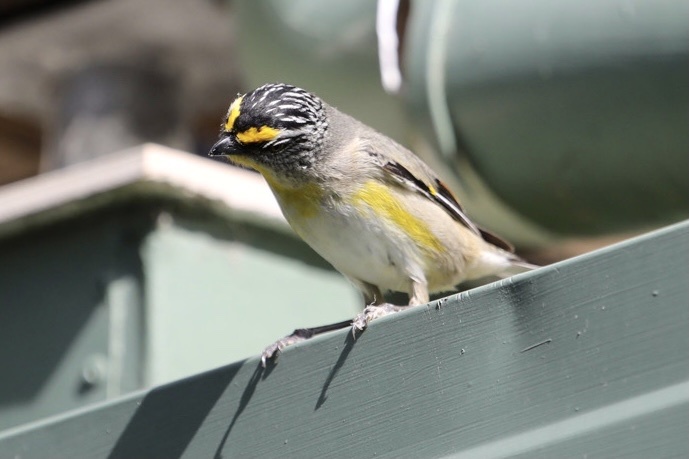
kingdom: Animalia
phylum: Chordata
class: Aves
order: Passeriformes
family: Pardalotidae
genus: Pardalotus
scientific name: Pardalotus striatus
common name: Striated pardalote
